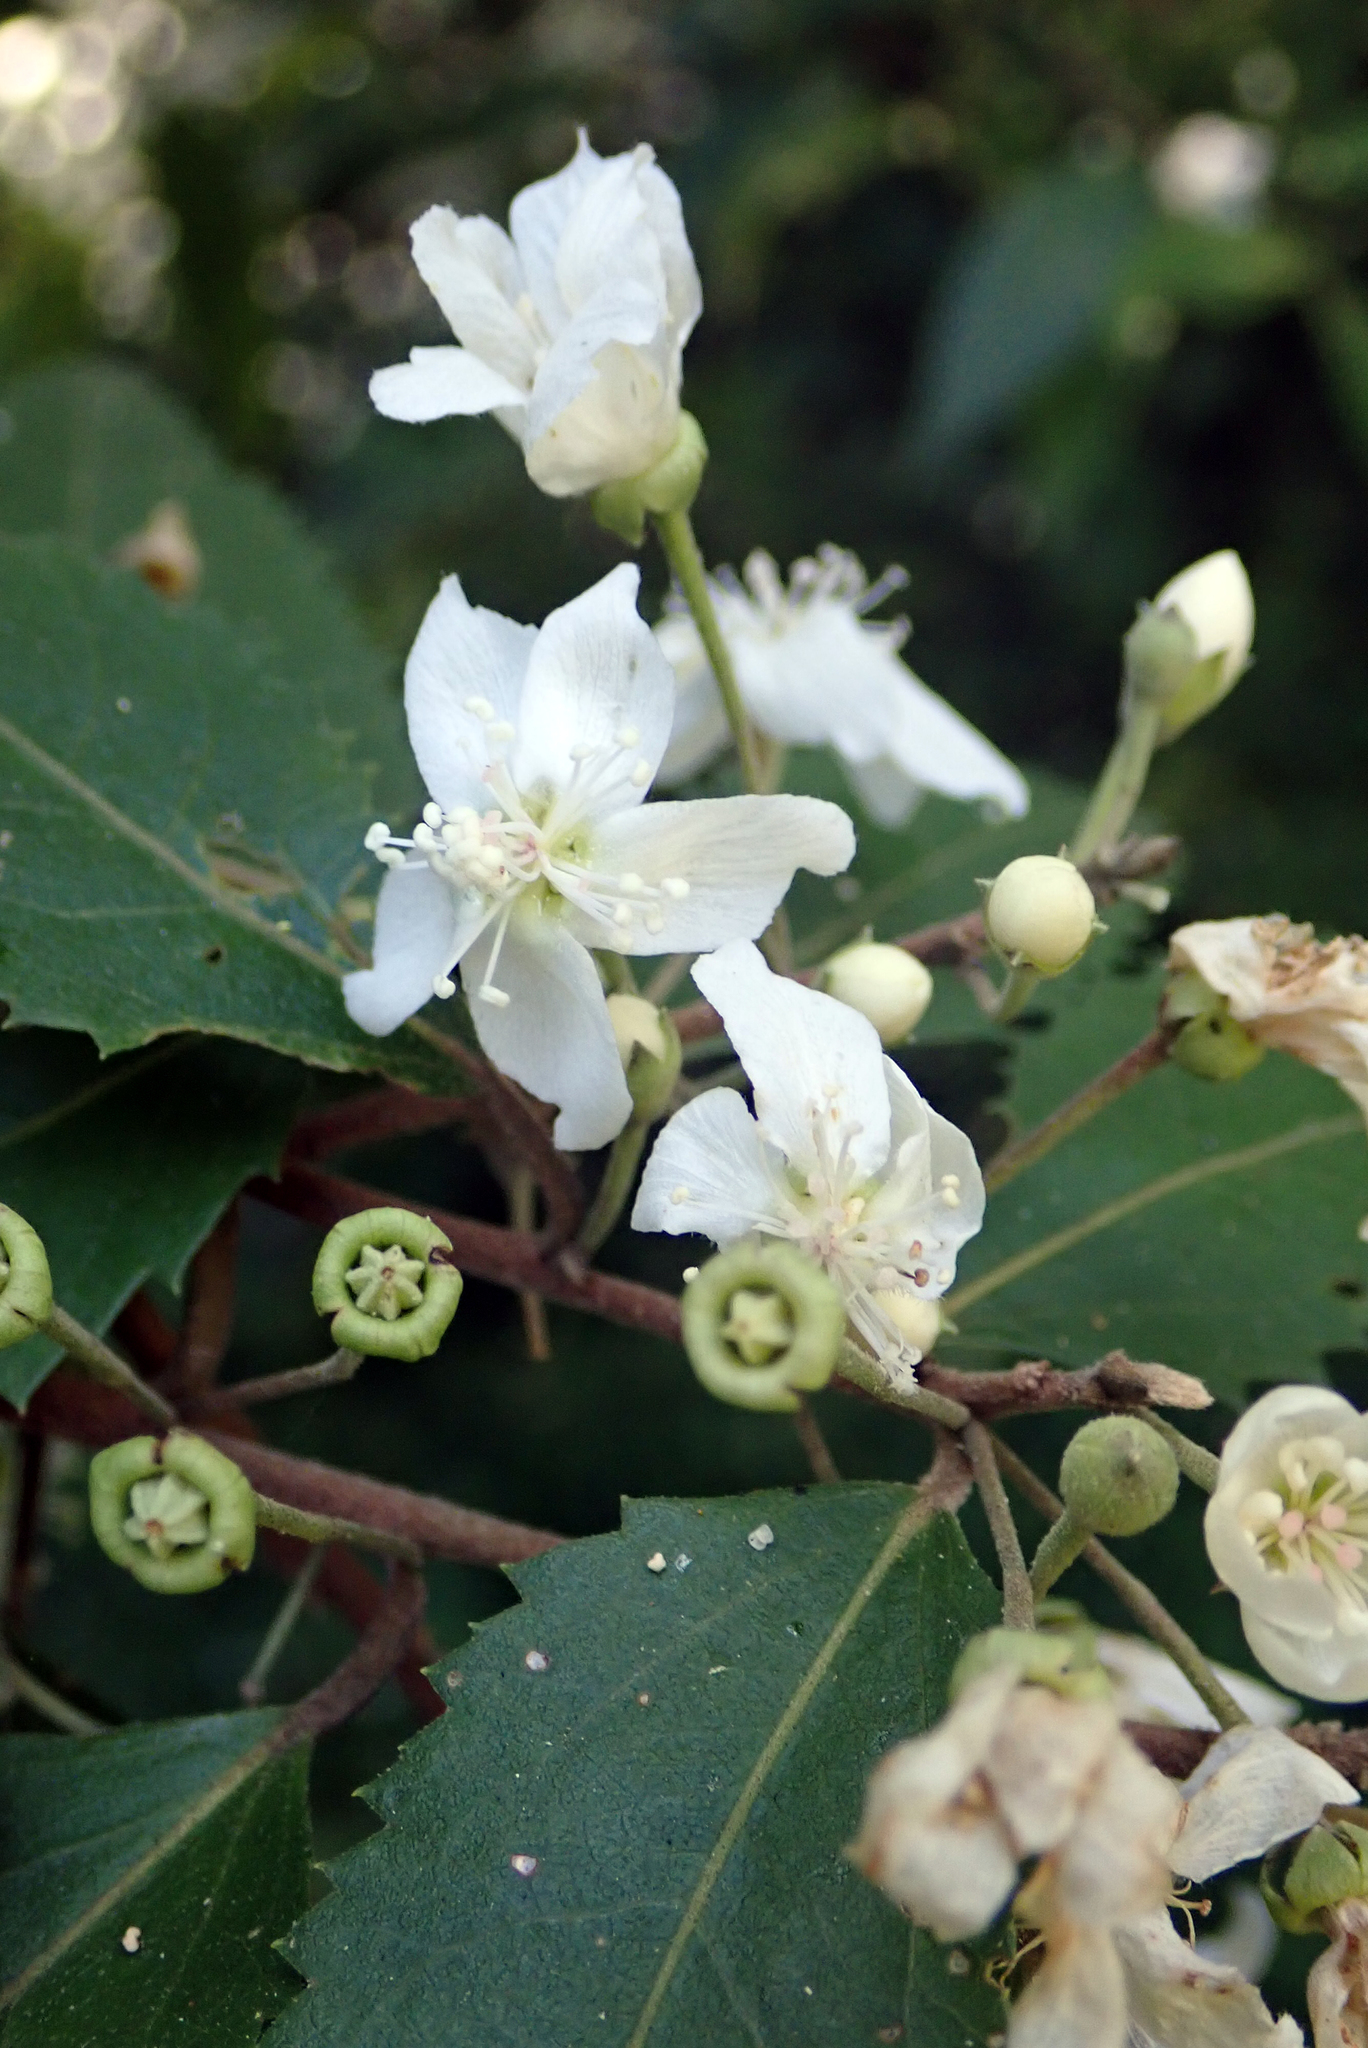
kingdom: Plantae
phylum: Tracheophyta
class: Magnoliopsida
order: Malvales
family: Malvaceae
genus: Hoheria
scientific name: Hoheria sexstylosa
